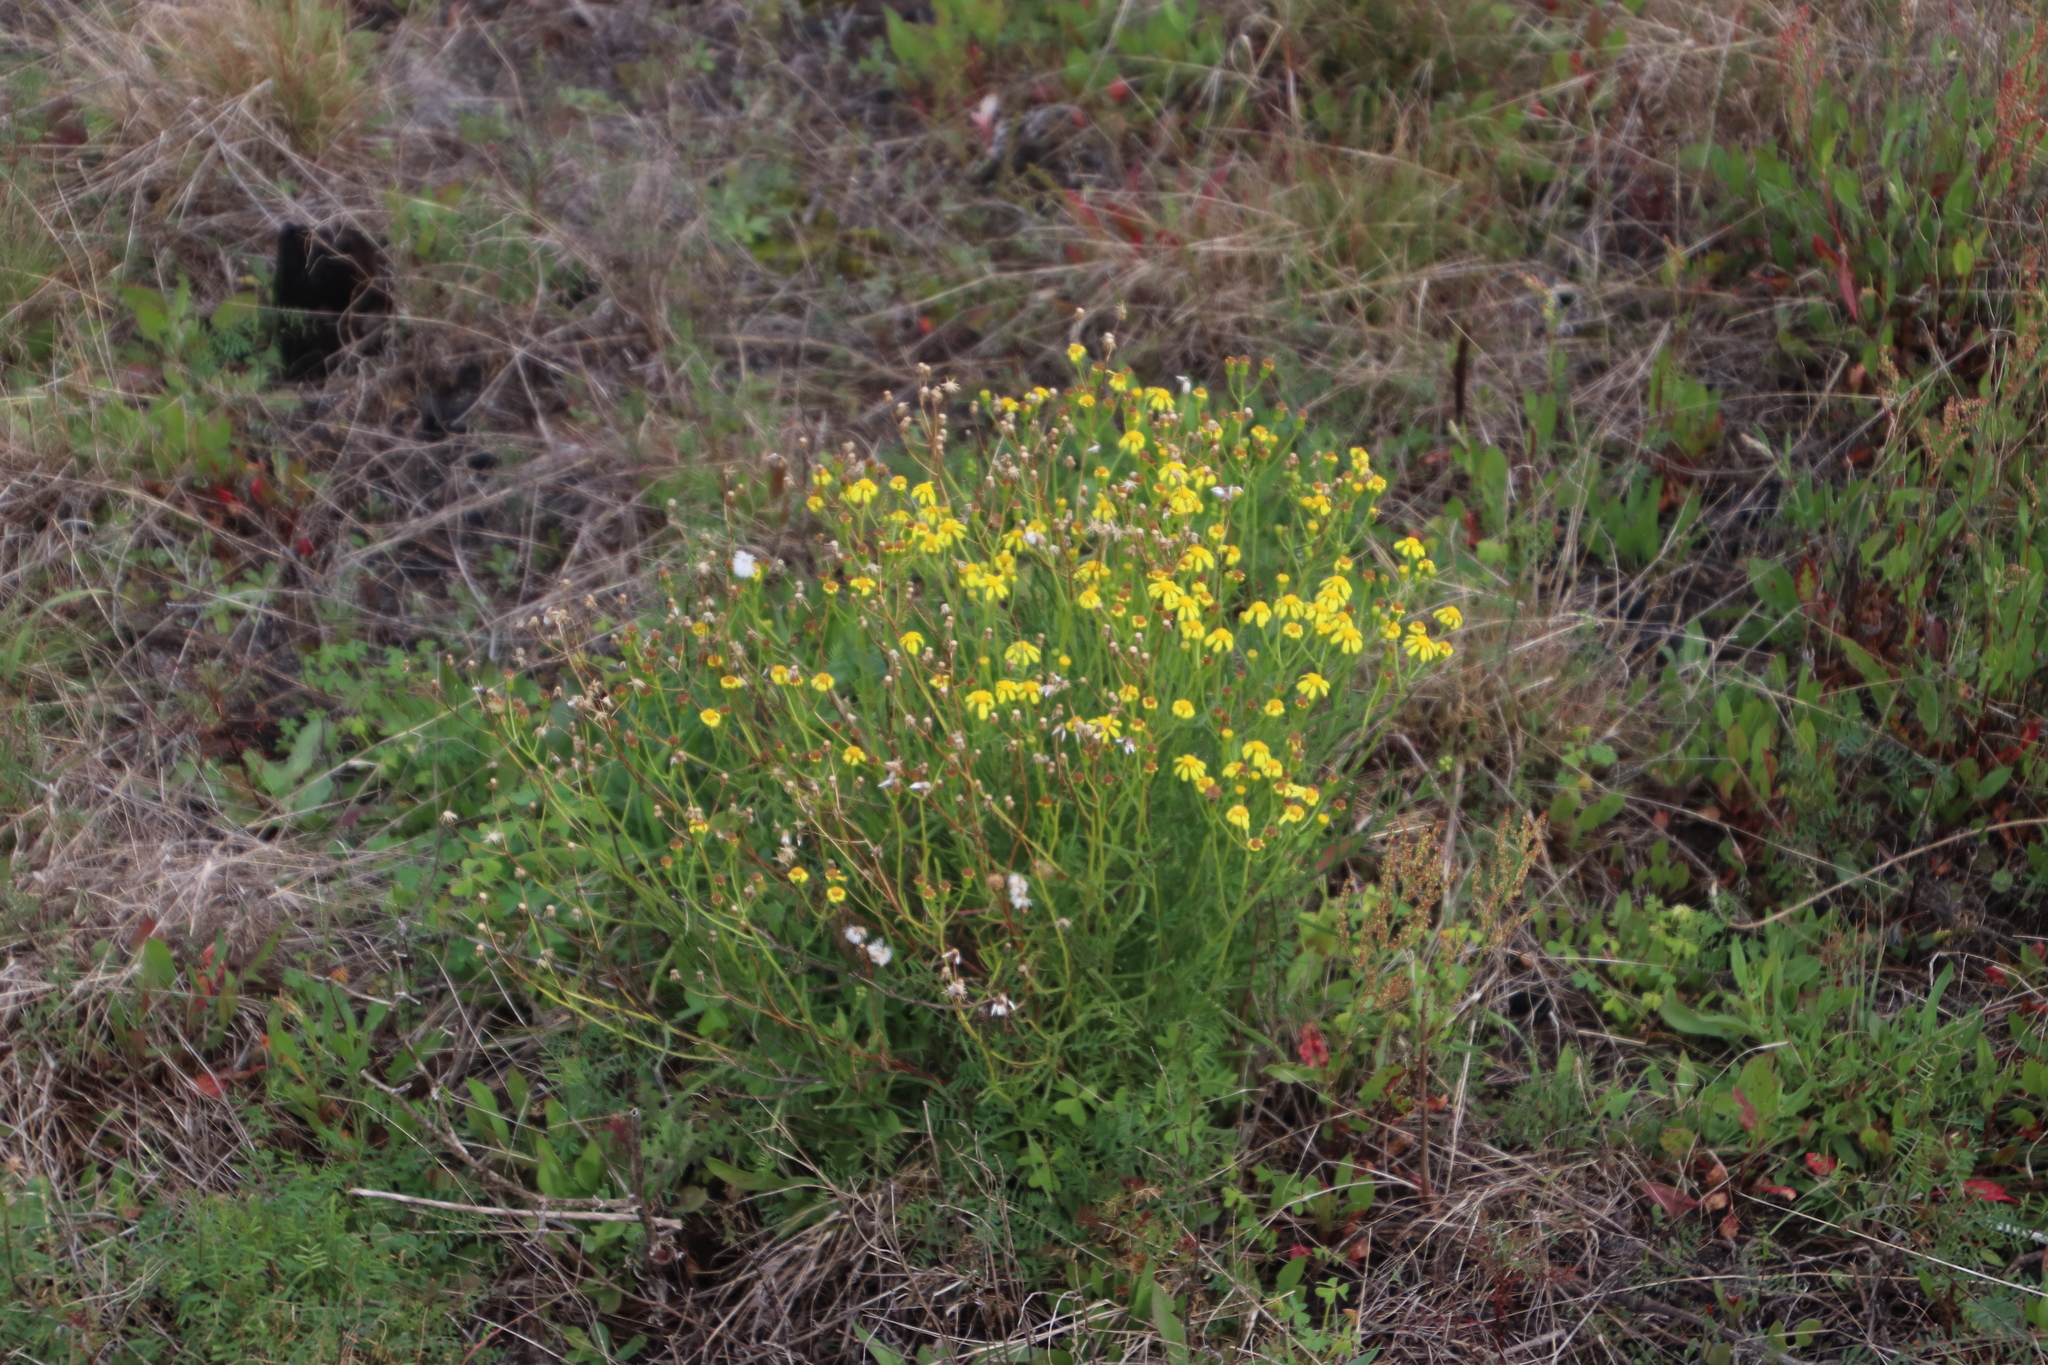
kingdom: Plantae
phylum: Tracheophyta
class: Magnoliopsida
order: Asterales
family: Asteraceae
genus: Senecio
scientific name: Senecio burchellii
